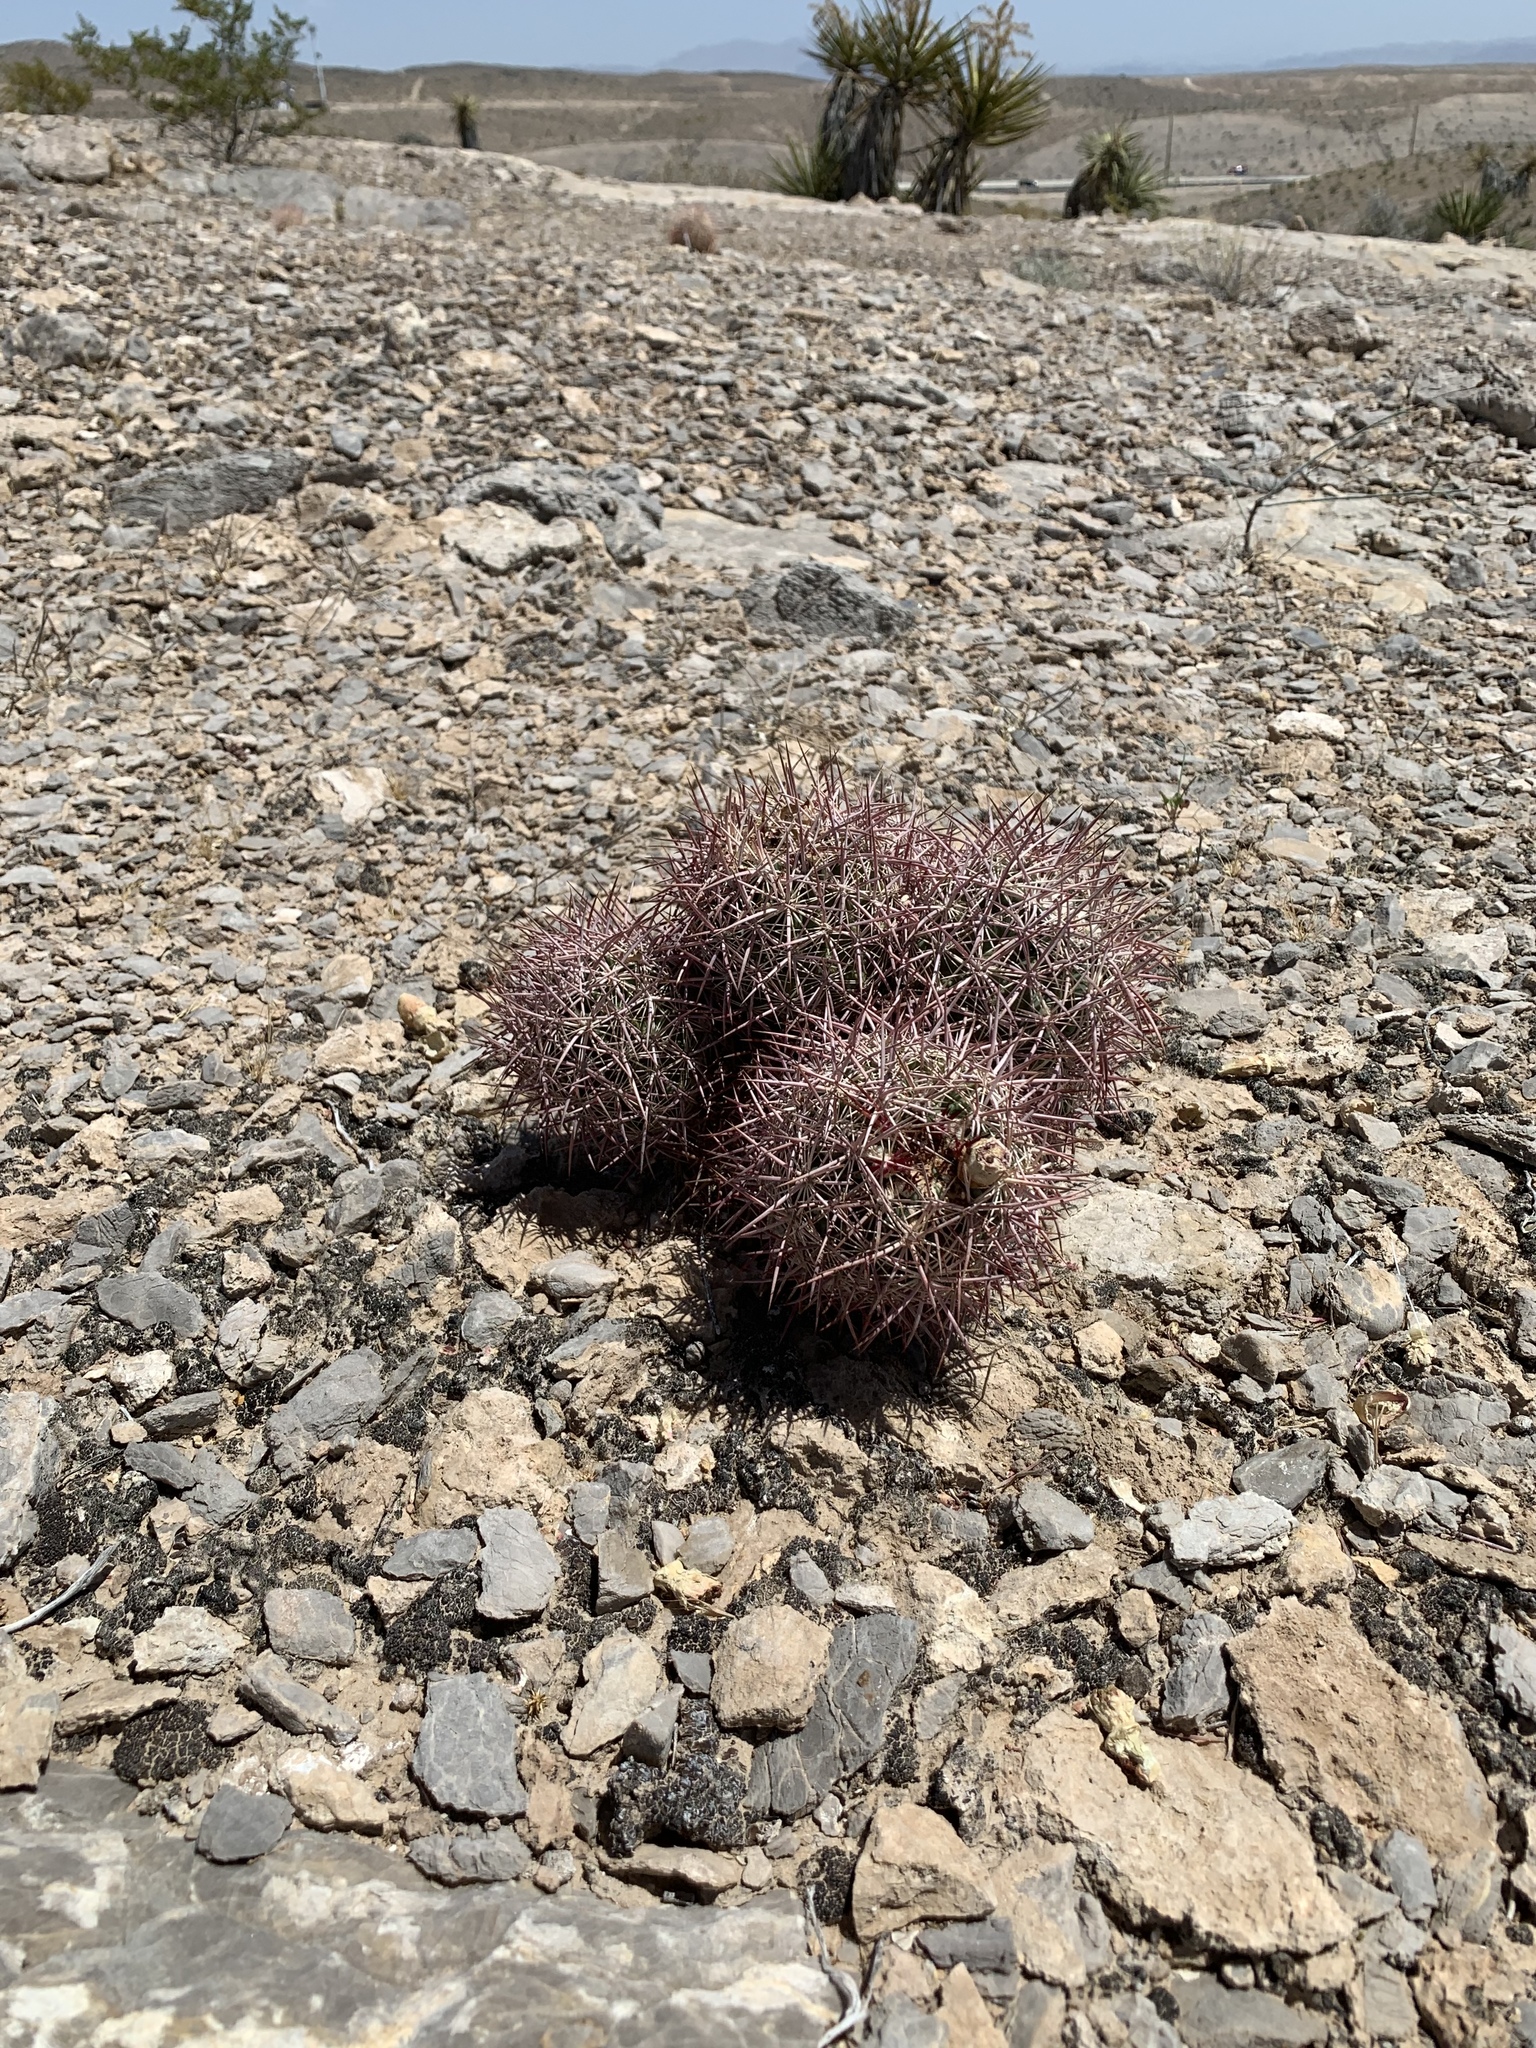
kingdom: Plantae
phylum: Tracheophyta
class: Magnoliopsida
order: Caryophyllales
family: Cactaceae
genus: Sclerocactus
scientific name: Sclerocactus johnsonii
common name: Eight-spine fishhook cactus
